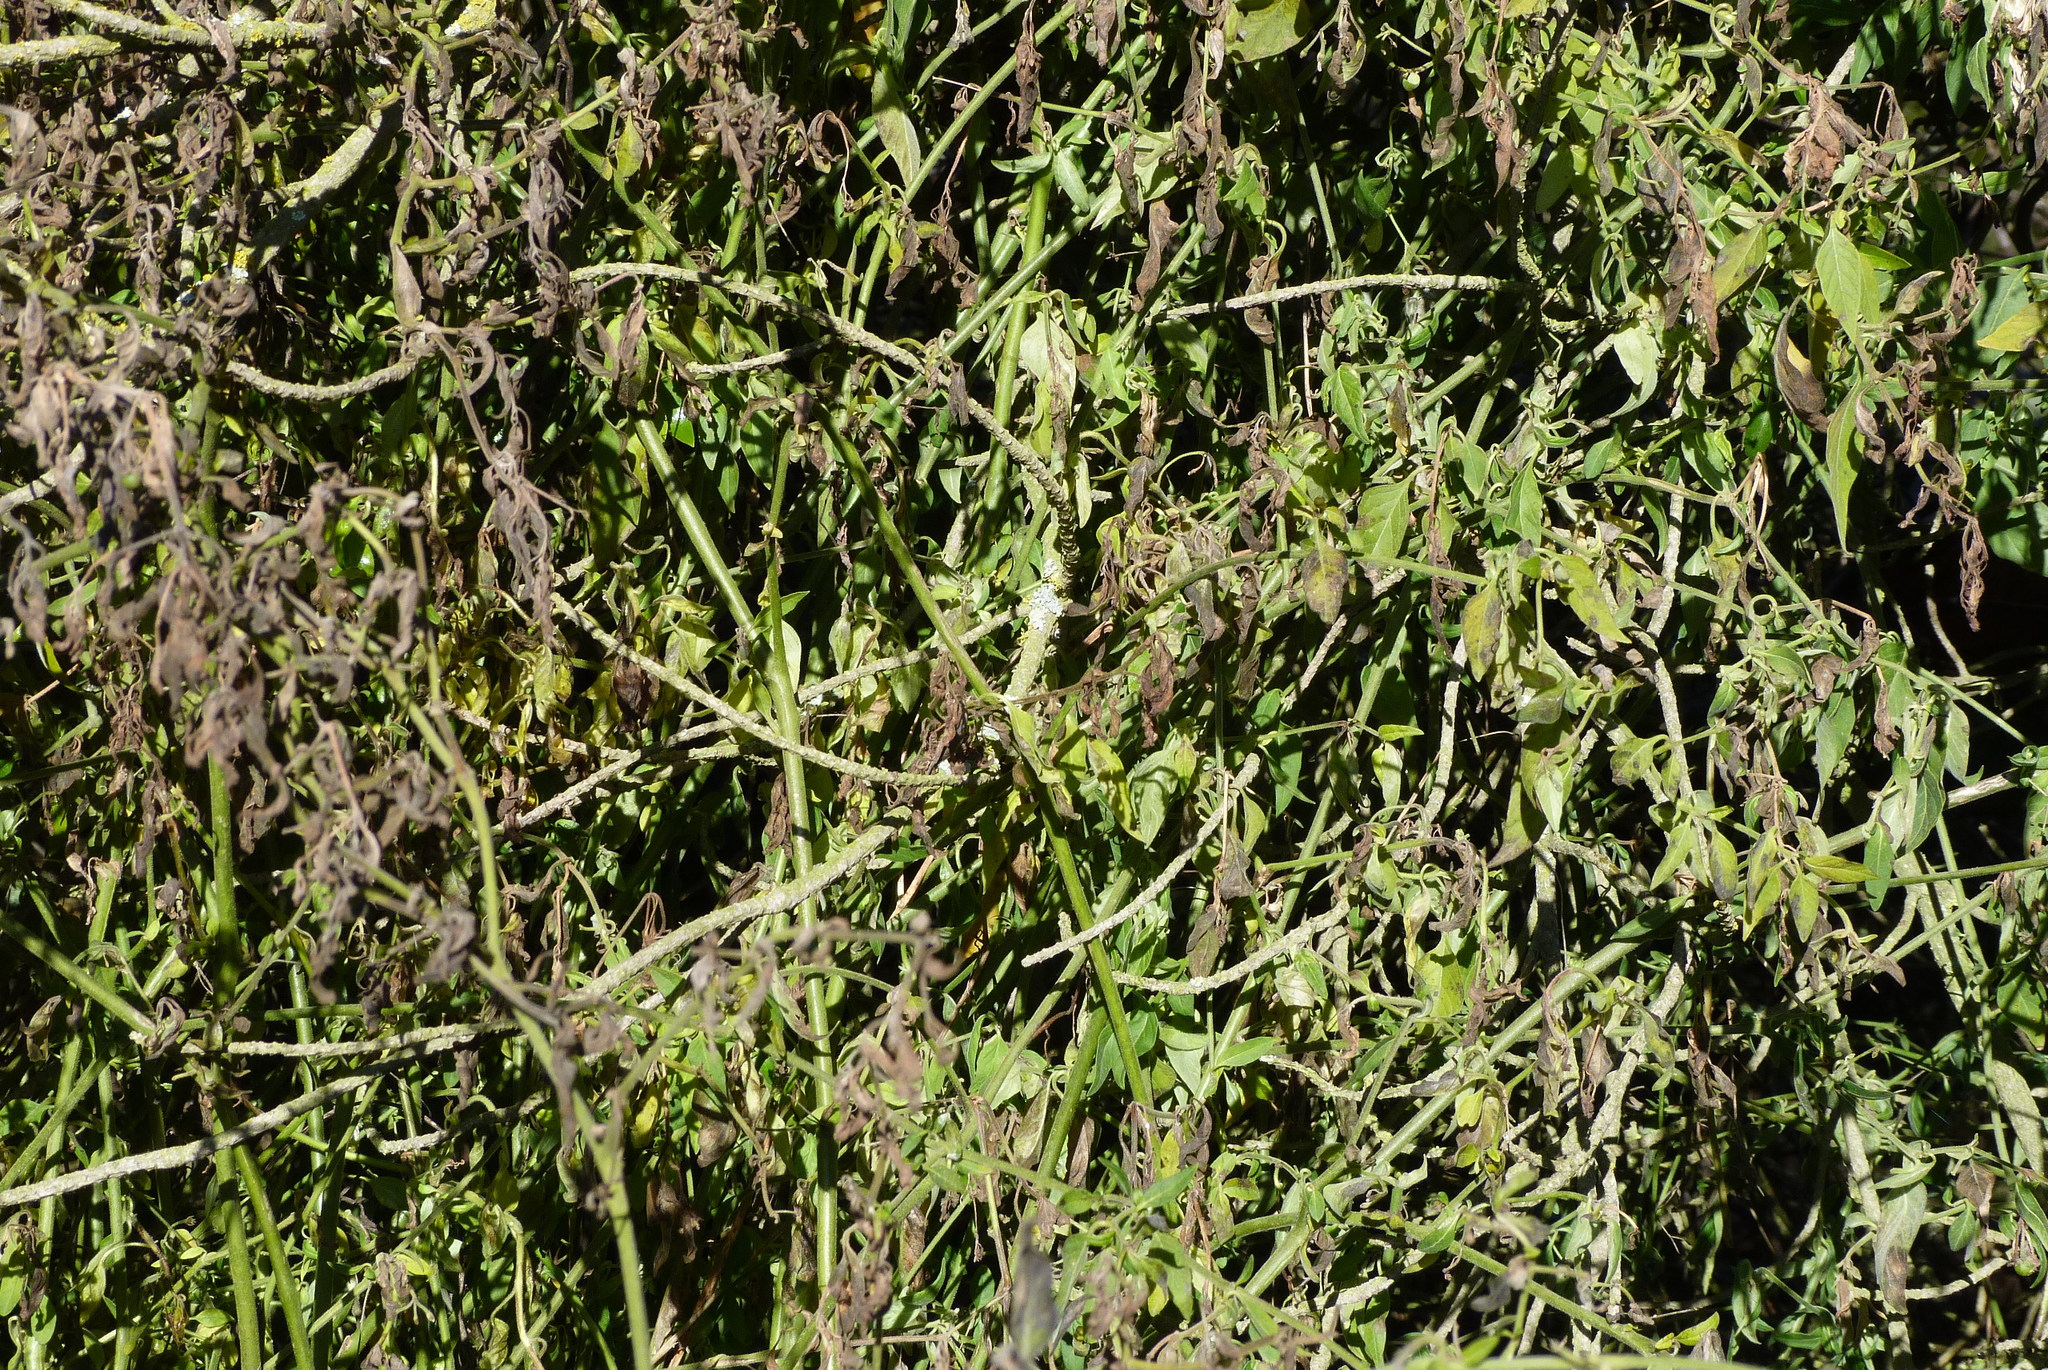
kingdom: Plantae
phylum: Tracheophyta
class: Magnoliopsida
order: Solanales
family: Solanaceae
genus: Solanum
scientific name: Solanum chenopodioides
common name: Tall nightshade
